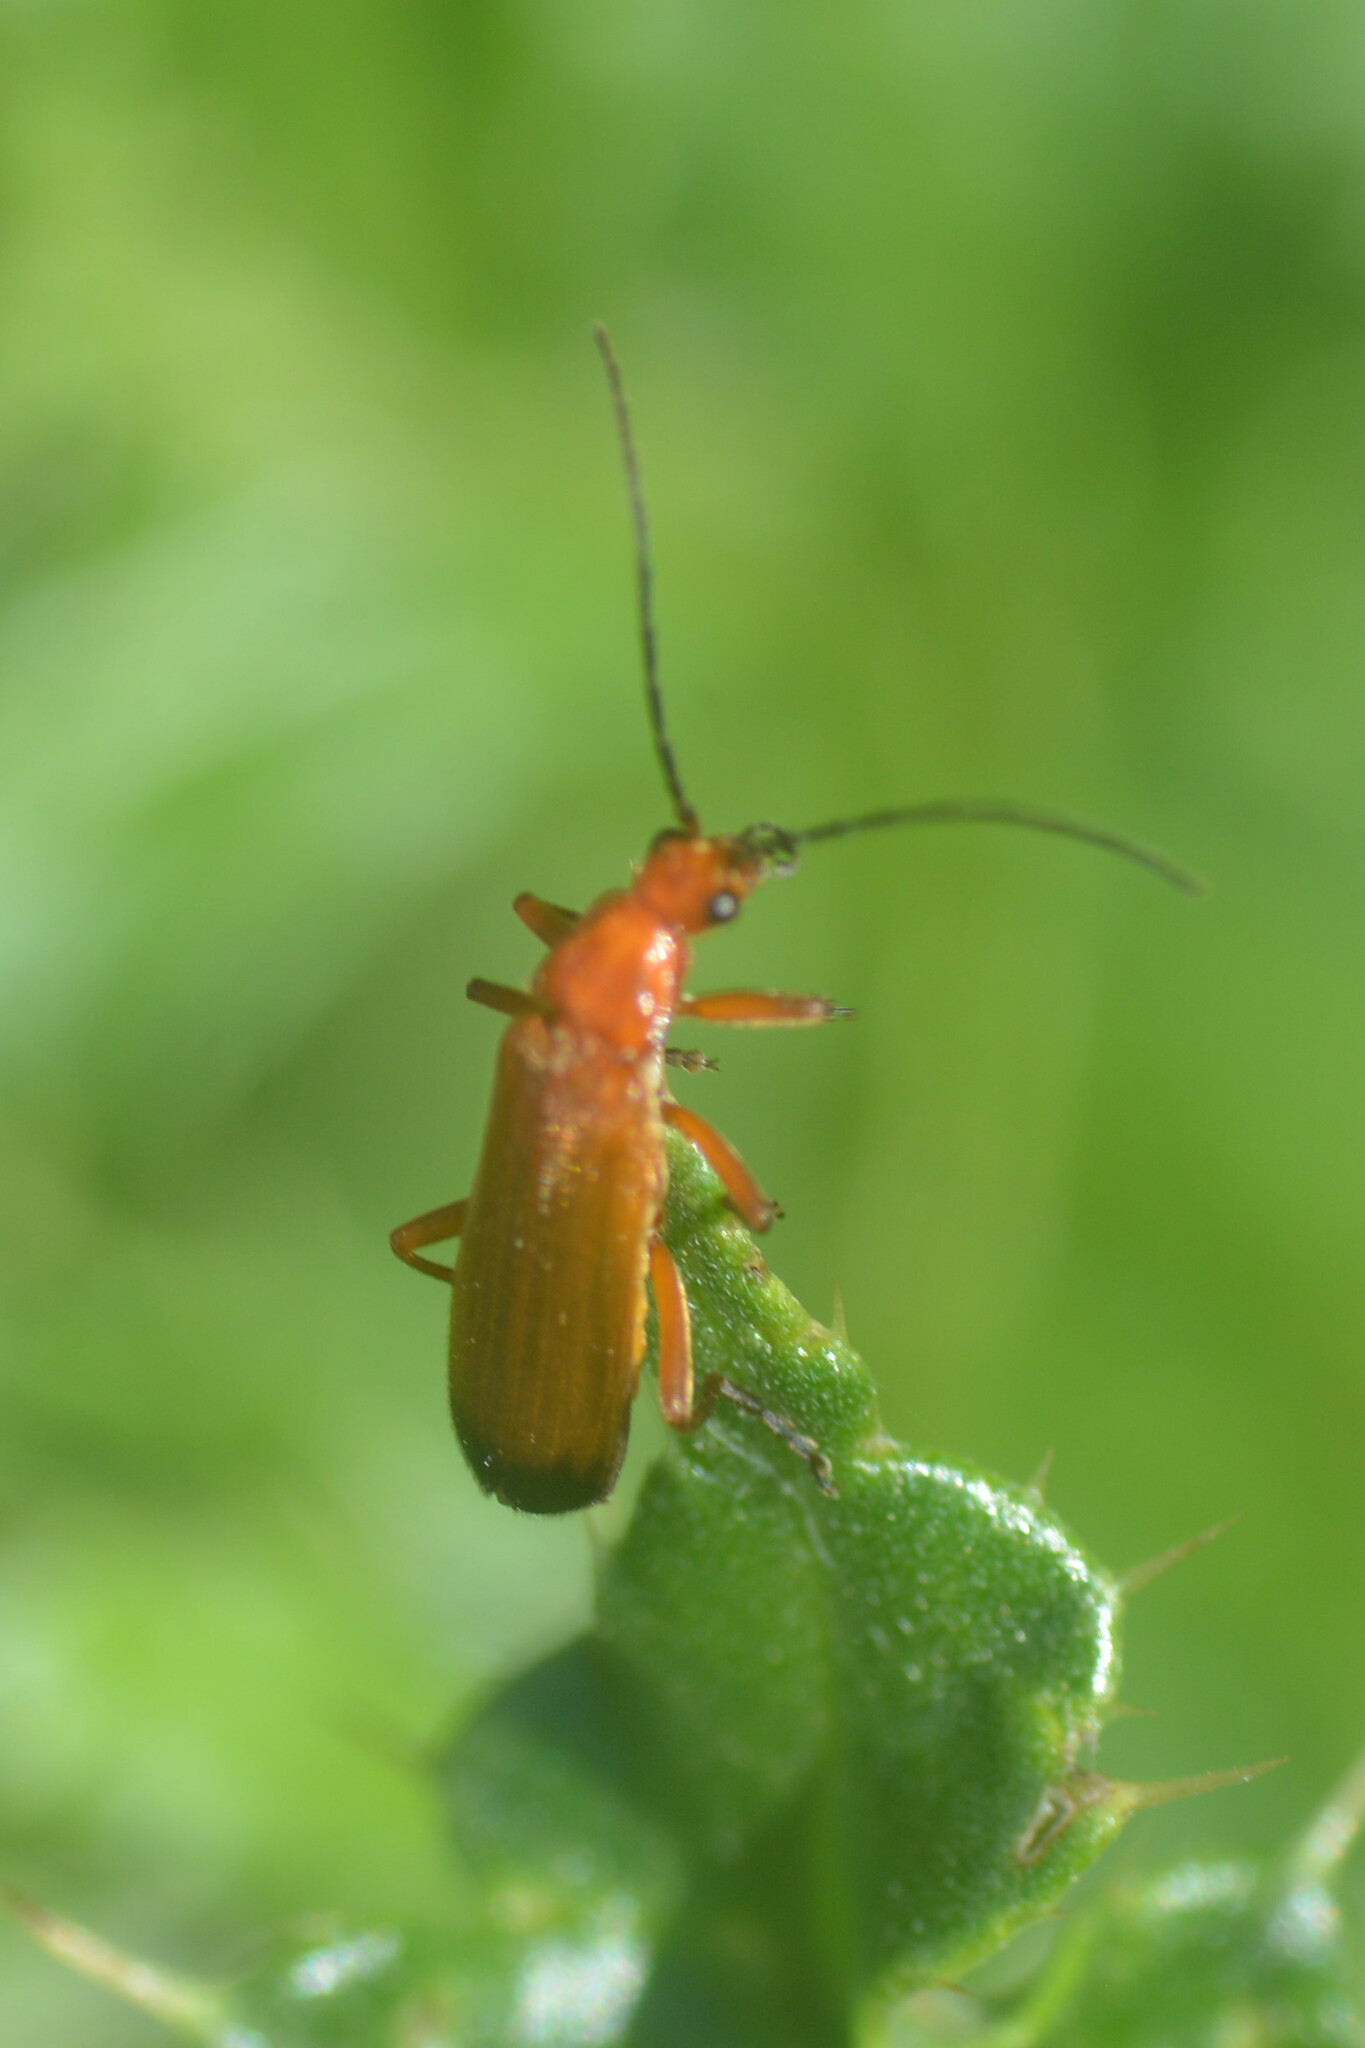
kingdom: Animalia
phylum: Arthropoda
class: Insecta
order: Coleoptera
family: Cantharidae
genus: Rhagonycha
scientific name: Rhagonycha fulva
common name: Common red soldier beetle
